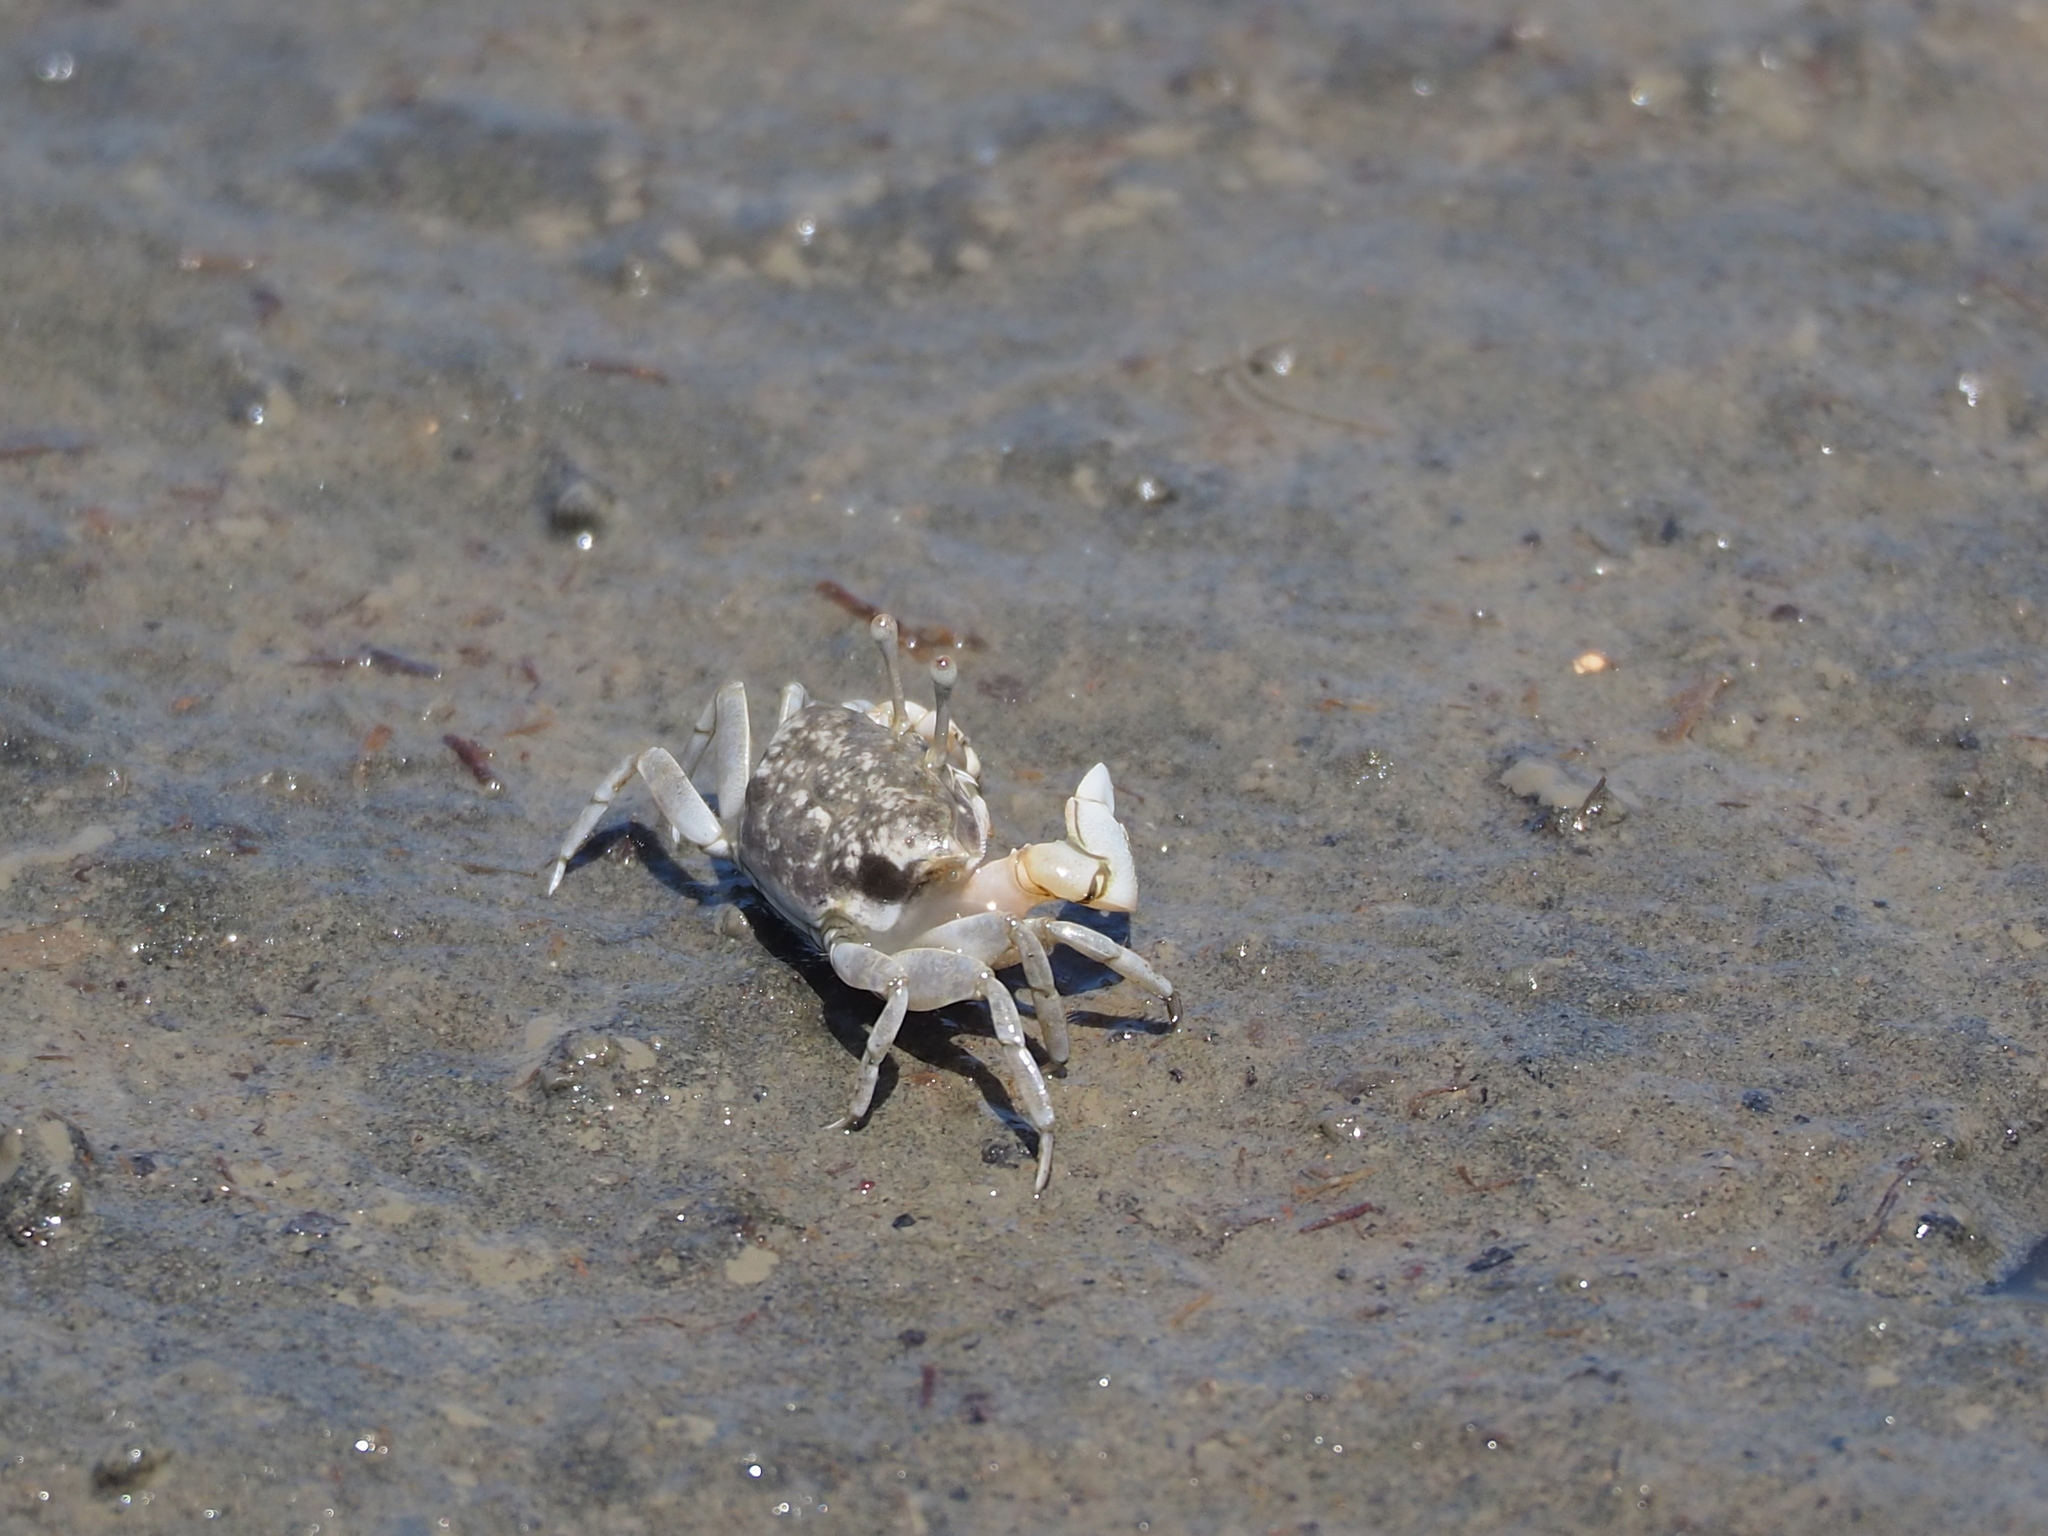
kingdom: Animalia
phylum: Arthropoda
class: Malacostraca
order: Decapoda
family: Ocypodidae
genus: Gelasimus
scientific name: Gelasimus borealis
